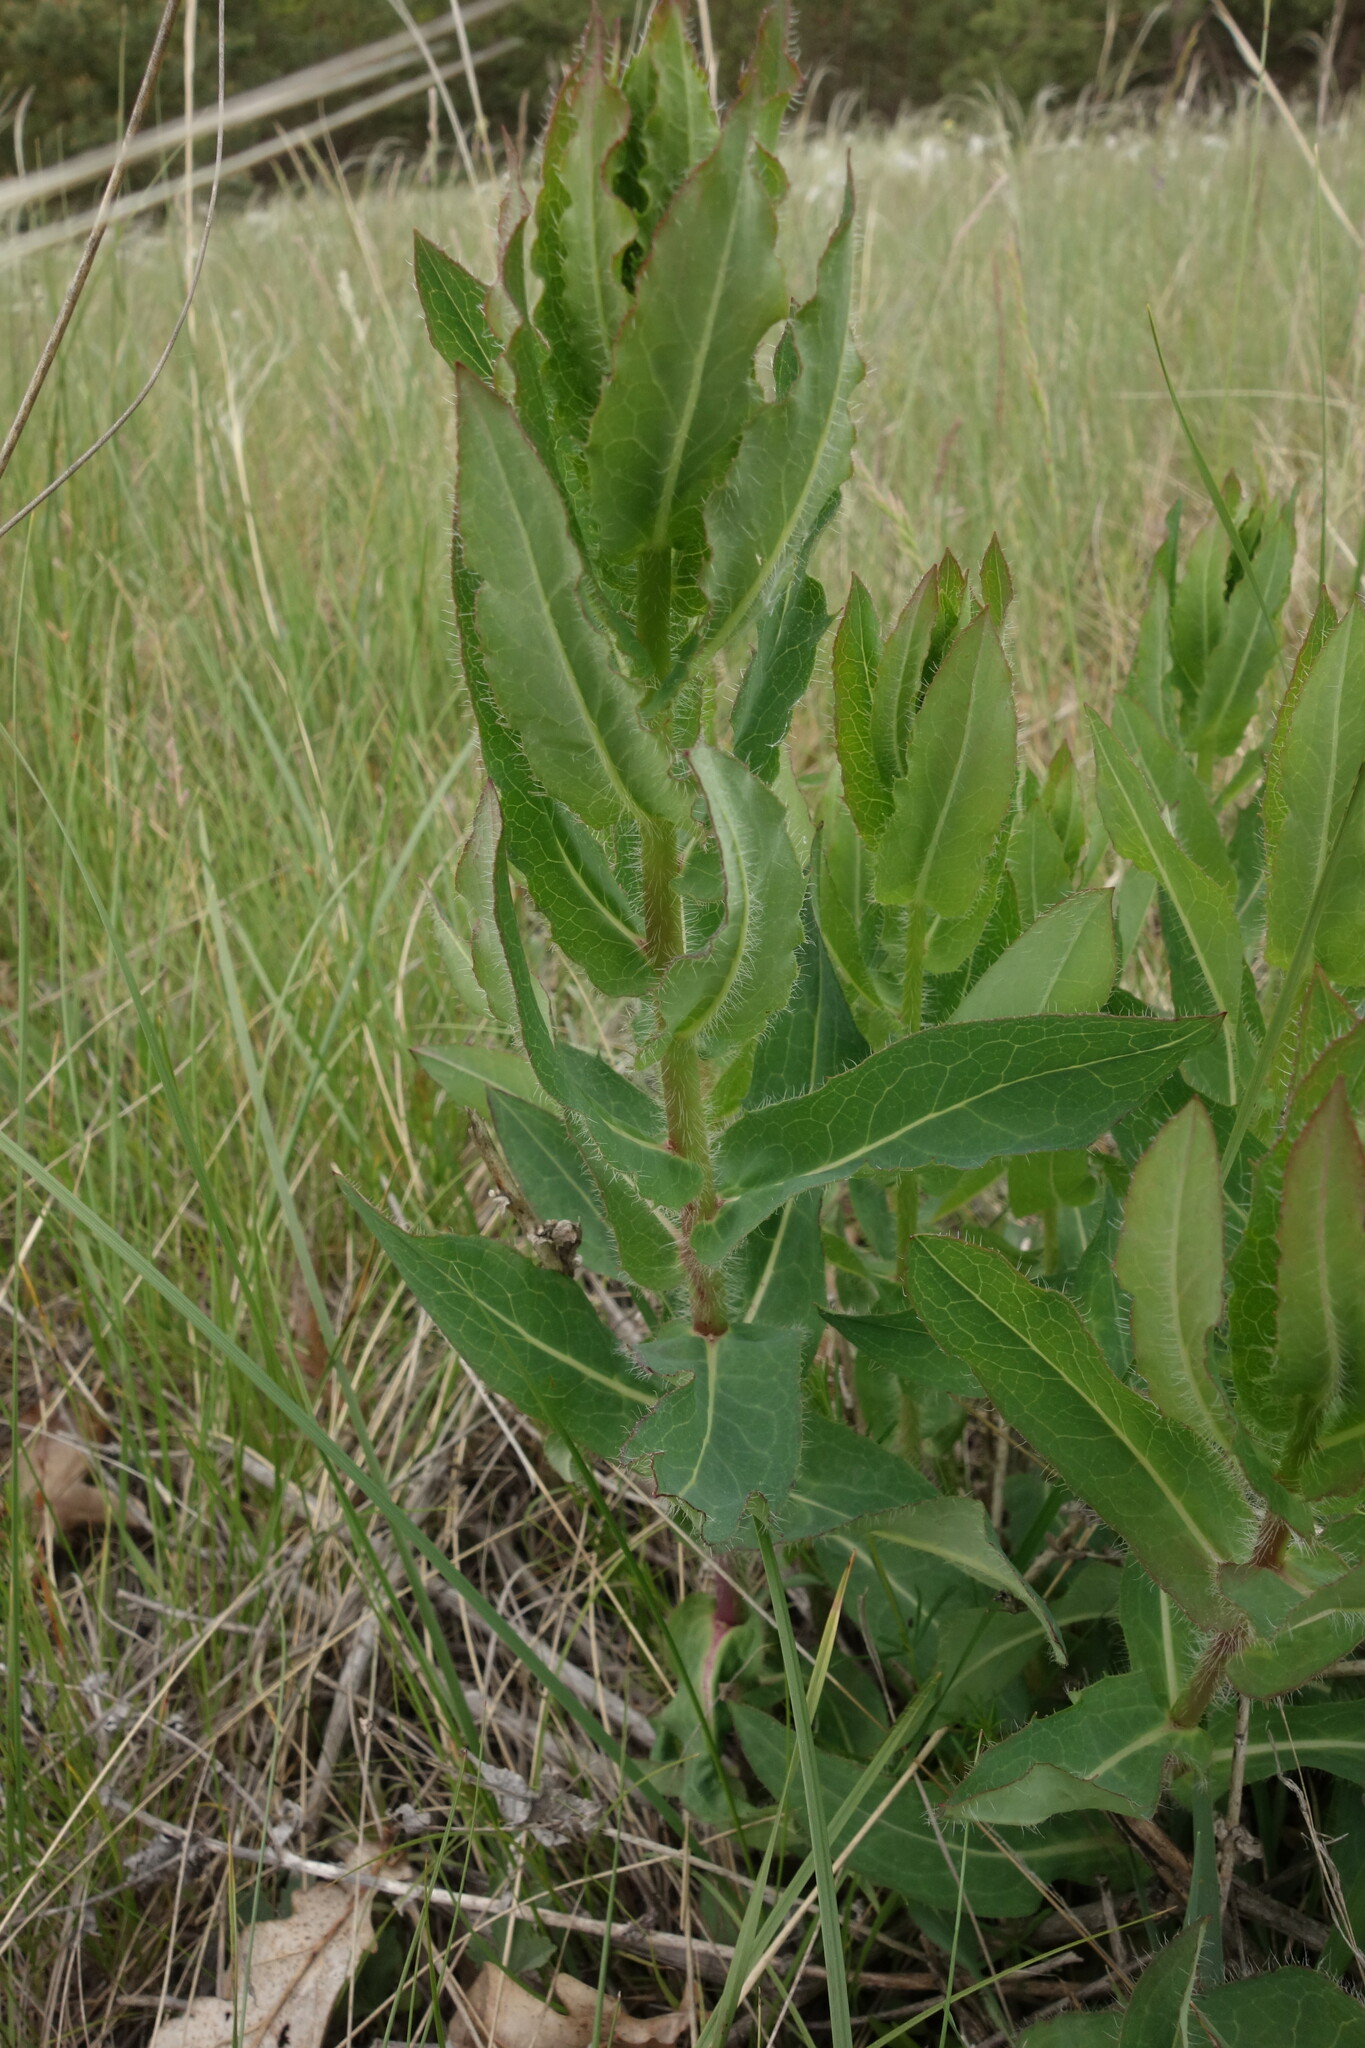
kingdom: Plantae
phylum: Tracheophyta
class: Magnoliopsida
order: Asterales
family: Asteraceae
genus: Hieracium
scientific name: Hieracium virosum
